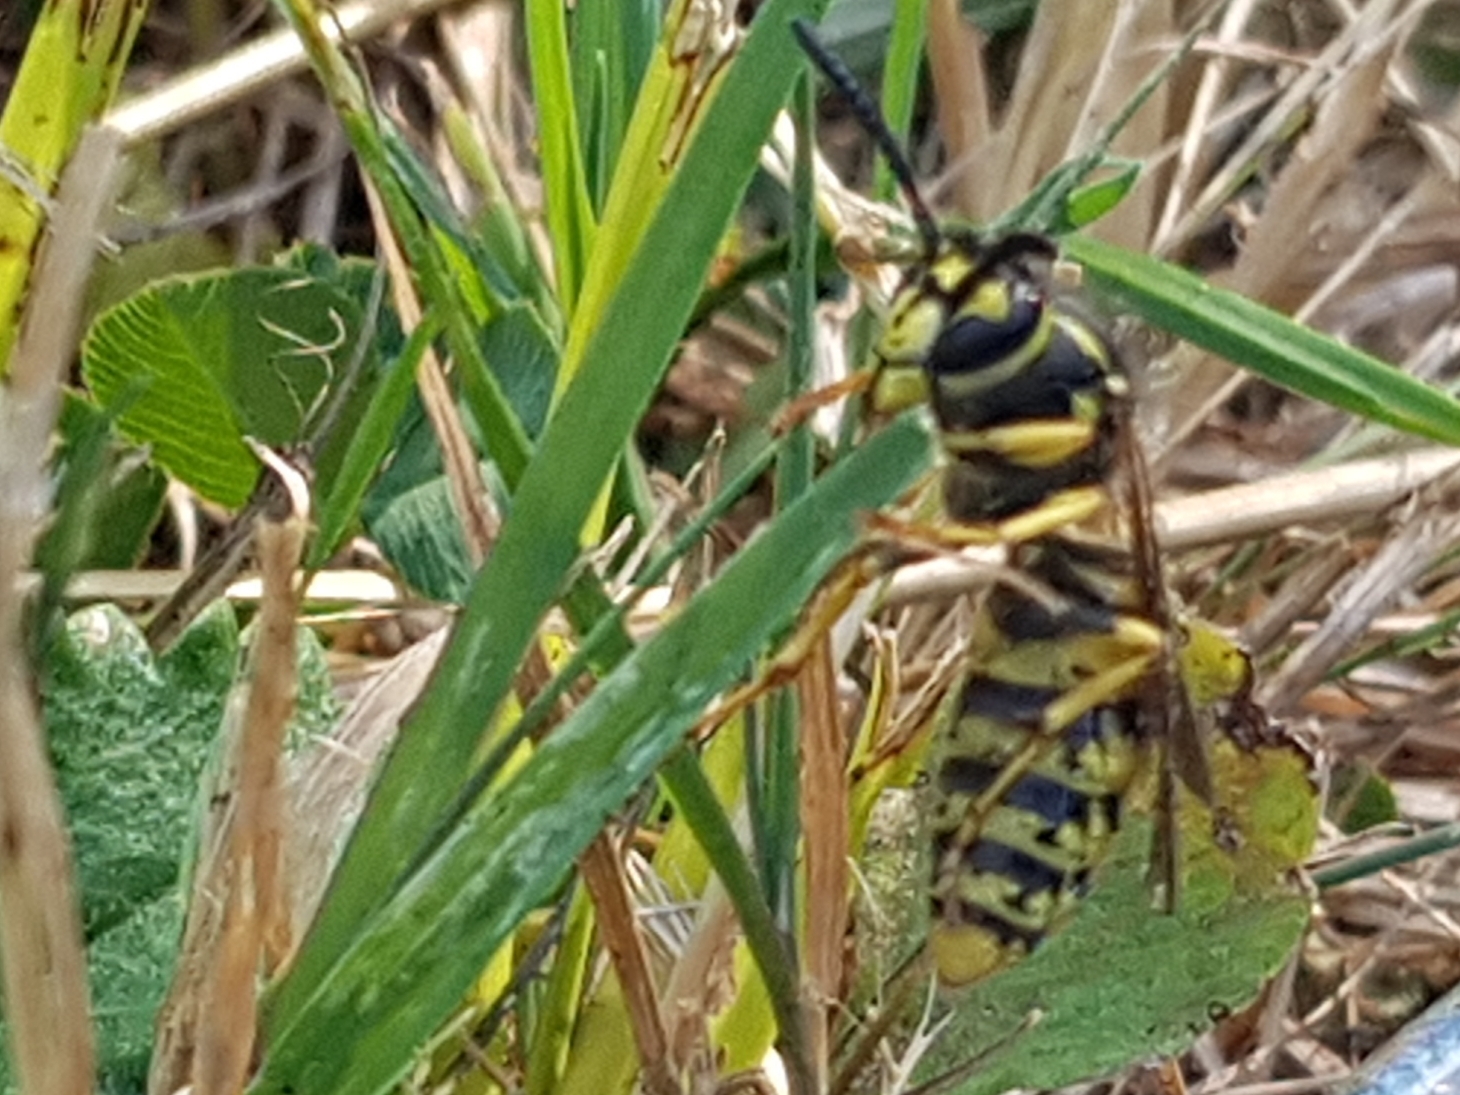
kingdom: Animalia
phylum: Arthropoda
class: Insecta
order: Hymenoptera
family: Vespidae
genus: Vespula
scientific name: Vespula germanica
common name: German wasp
